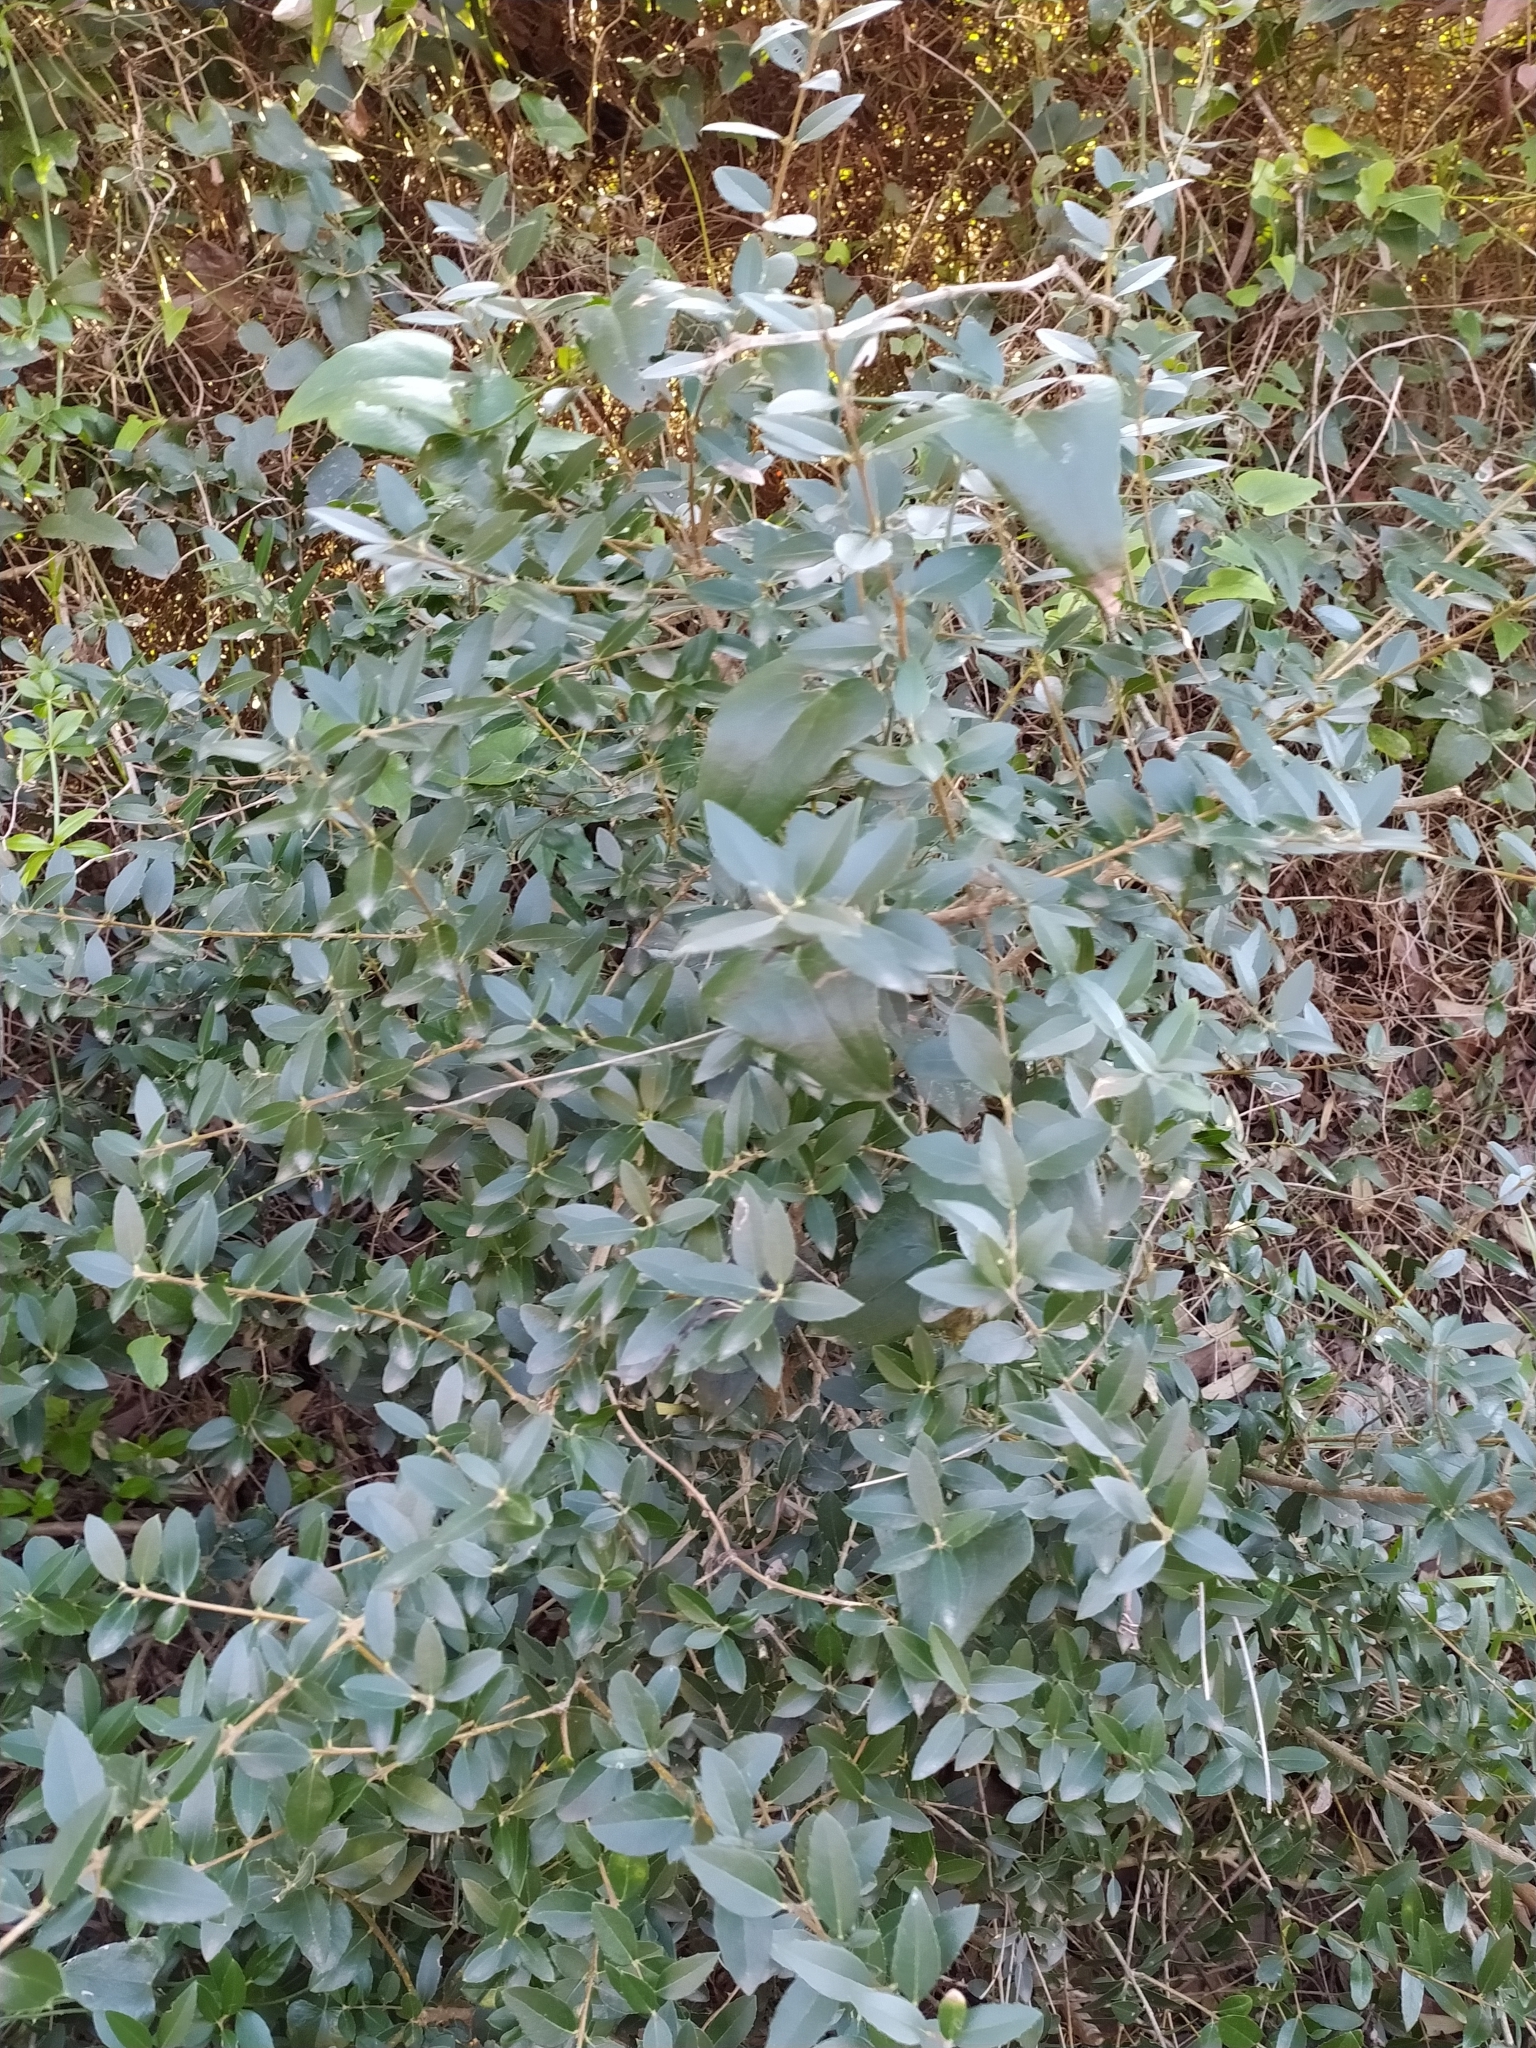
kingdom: Plantae
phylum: Tracheophyta
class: Magnoliopsida
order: Lamiales
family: Oleaceae
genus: Phillyrea
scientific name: Phillyrea latifolia
